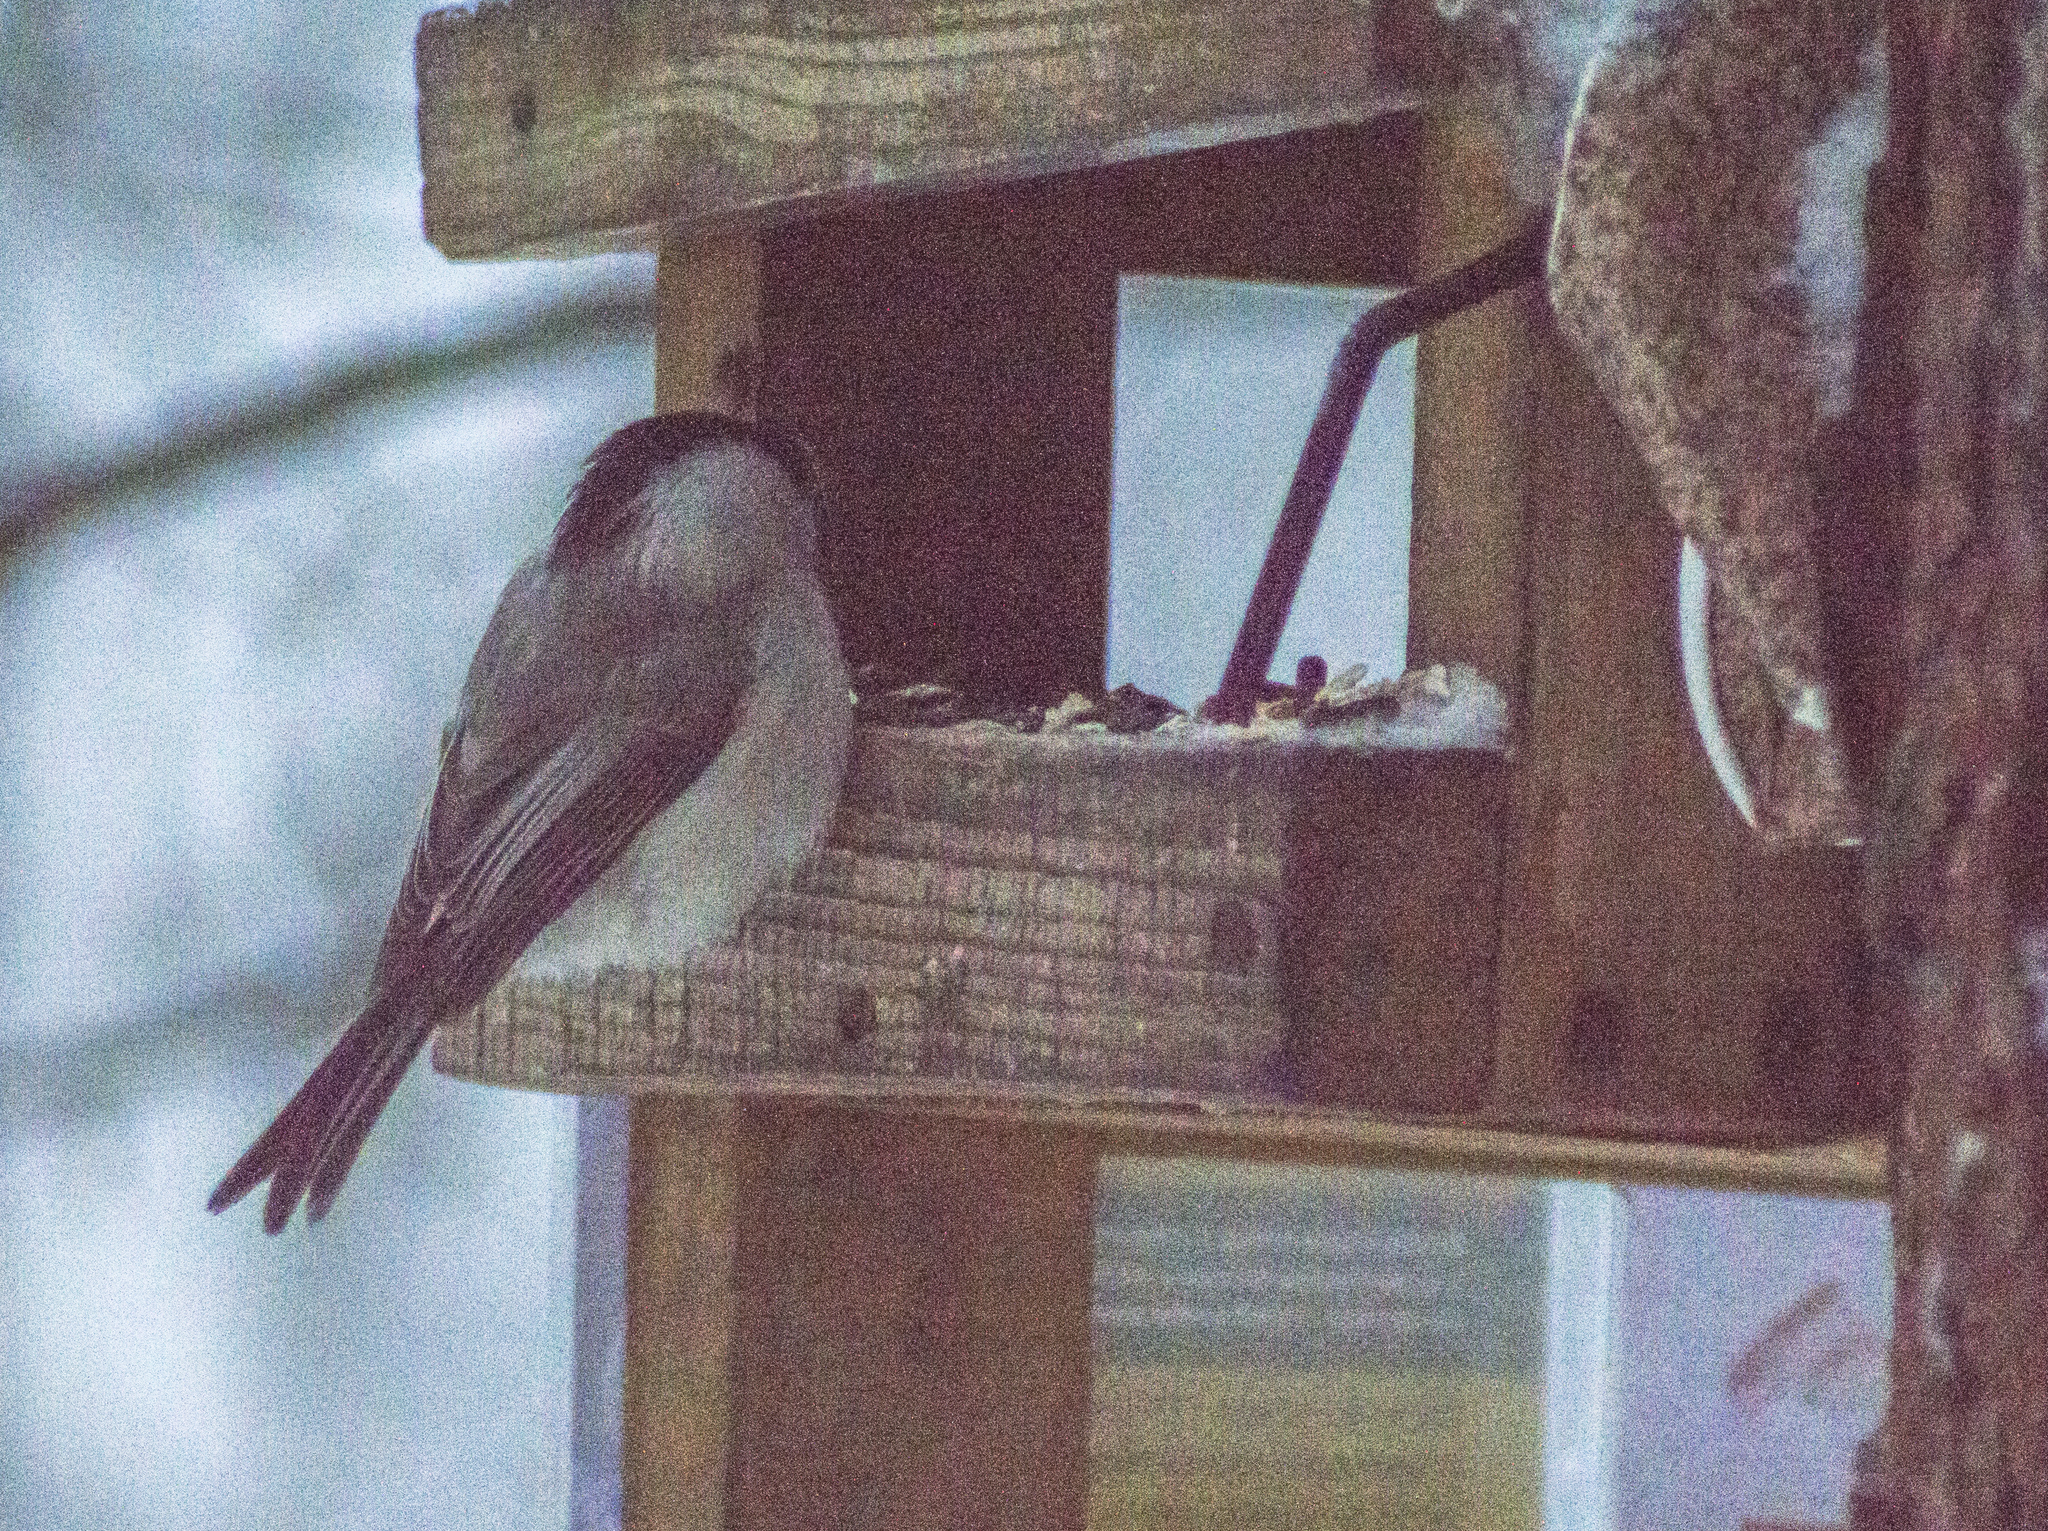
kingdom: Animalia
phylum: Chordata
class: Aves
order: Passeriformes
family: Paridae
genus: Poecile
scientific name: Poecile montanus
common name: Willow tit
